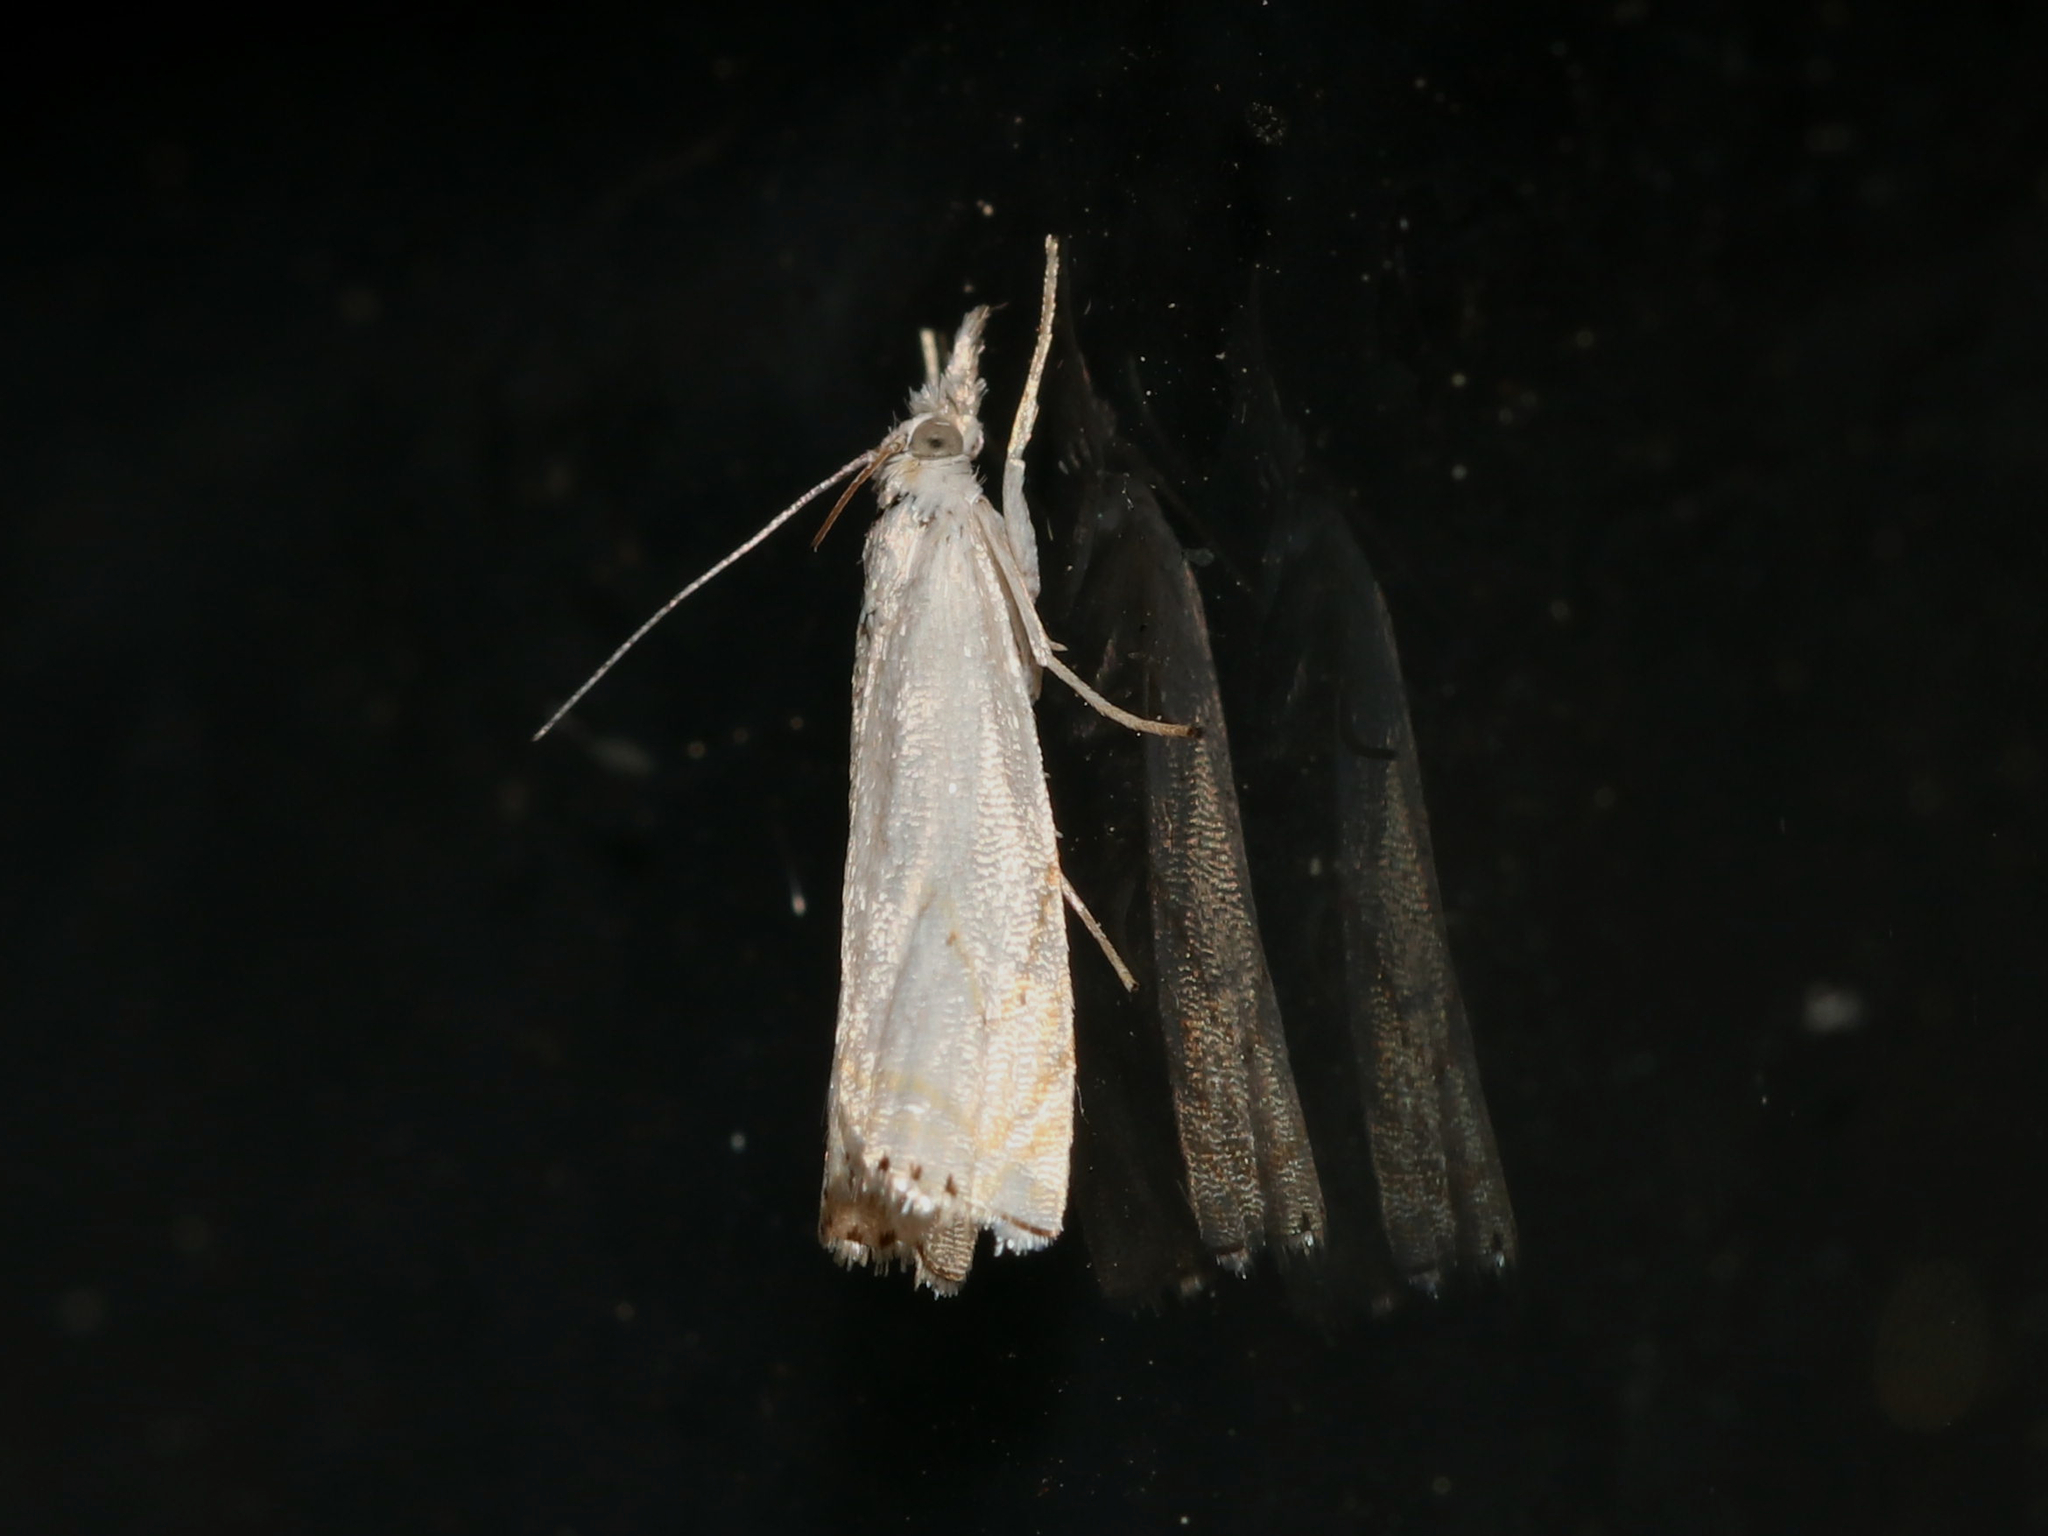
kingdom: Animalia
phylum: Arthropoda
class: Insecta
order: Lepidoptera
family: Crambidae
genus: Crambus
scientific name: Crambus albellus
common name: Small white grass-veneer
